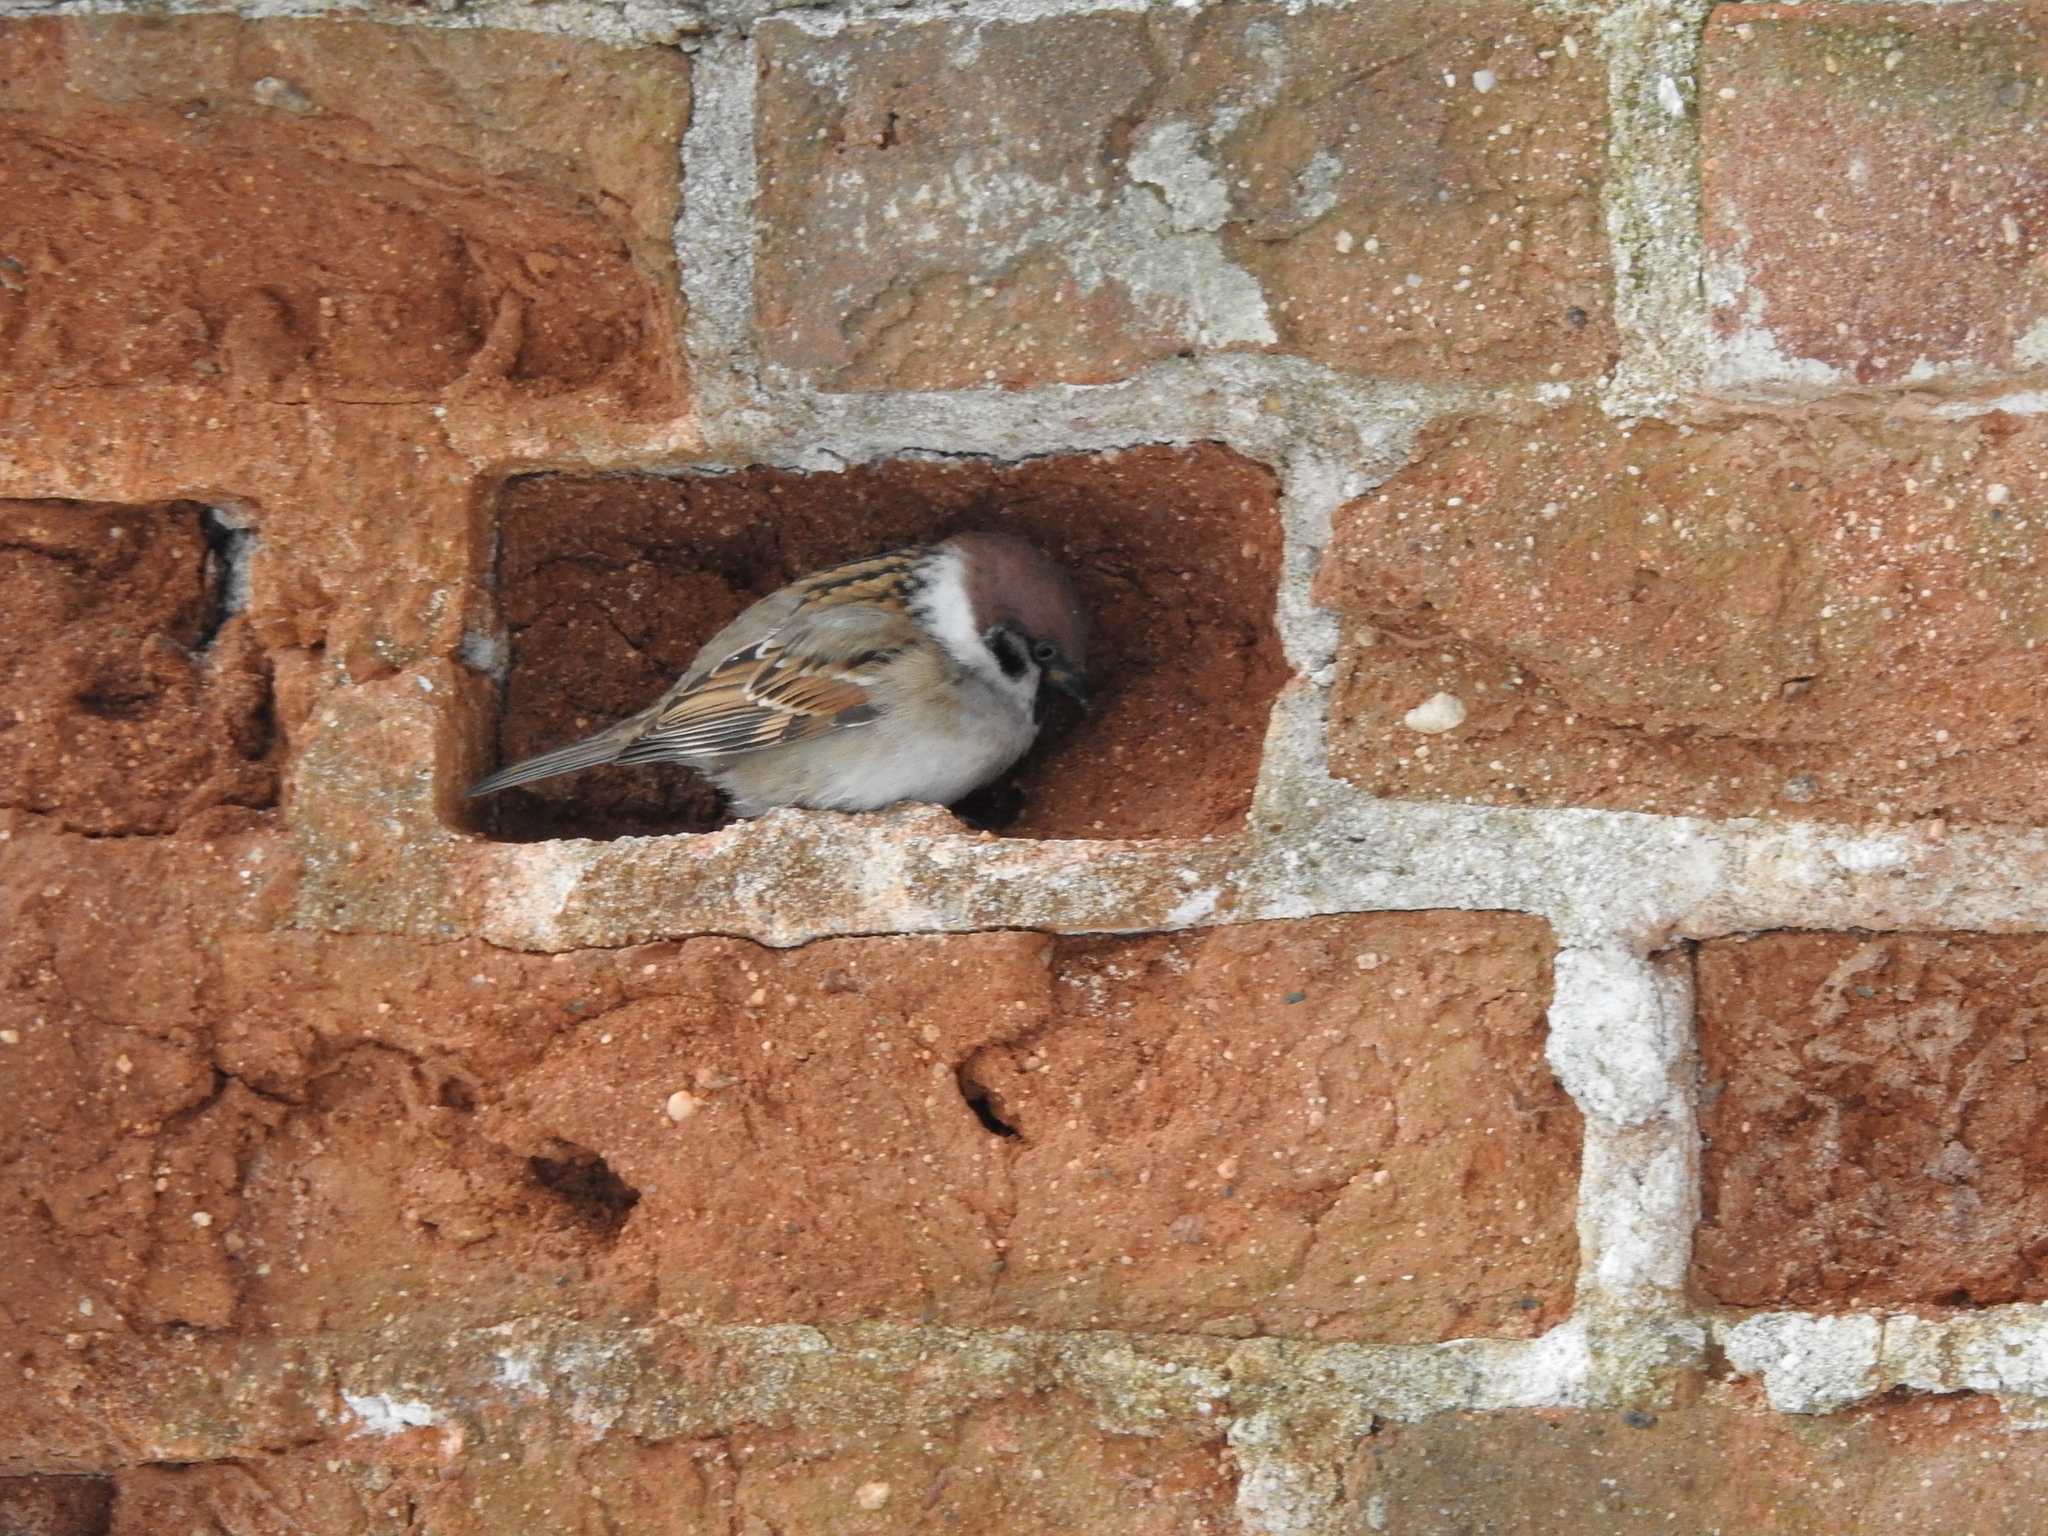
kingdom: Animalia
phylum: Chordata
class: Aves
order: Passeriformes
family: Passeridae
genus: Passer
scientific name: Passer montanus
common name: Eurasian tree sparrow
